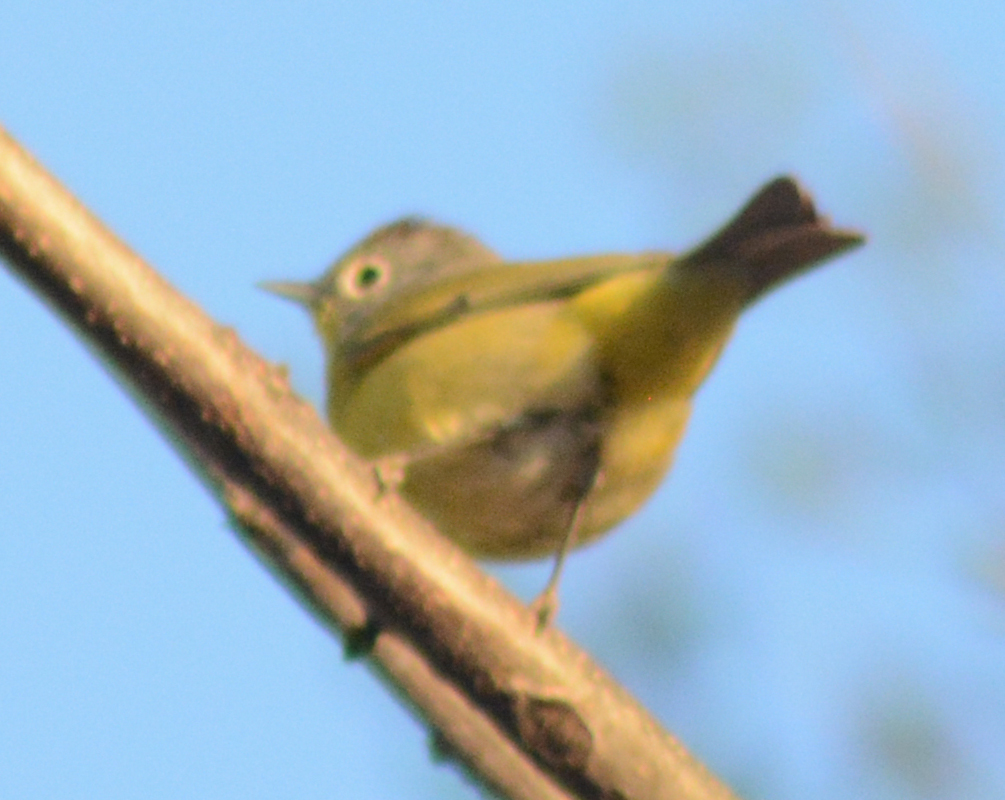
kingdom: Animalia
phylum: Chordata
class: Aves
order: Passeriformes
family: Parulidae
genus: Leiothlypis
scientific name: Leiothlypis ruficapilla
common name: Nashville warbler
